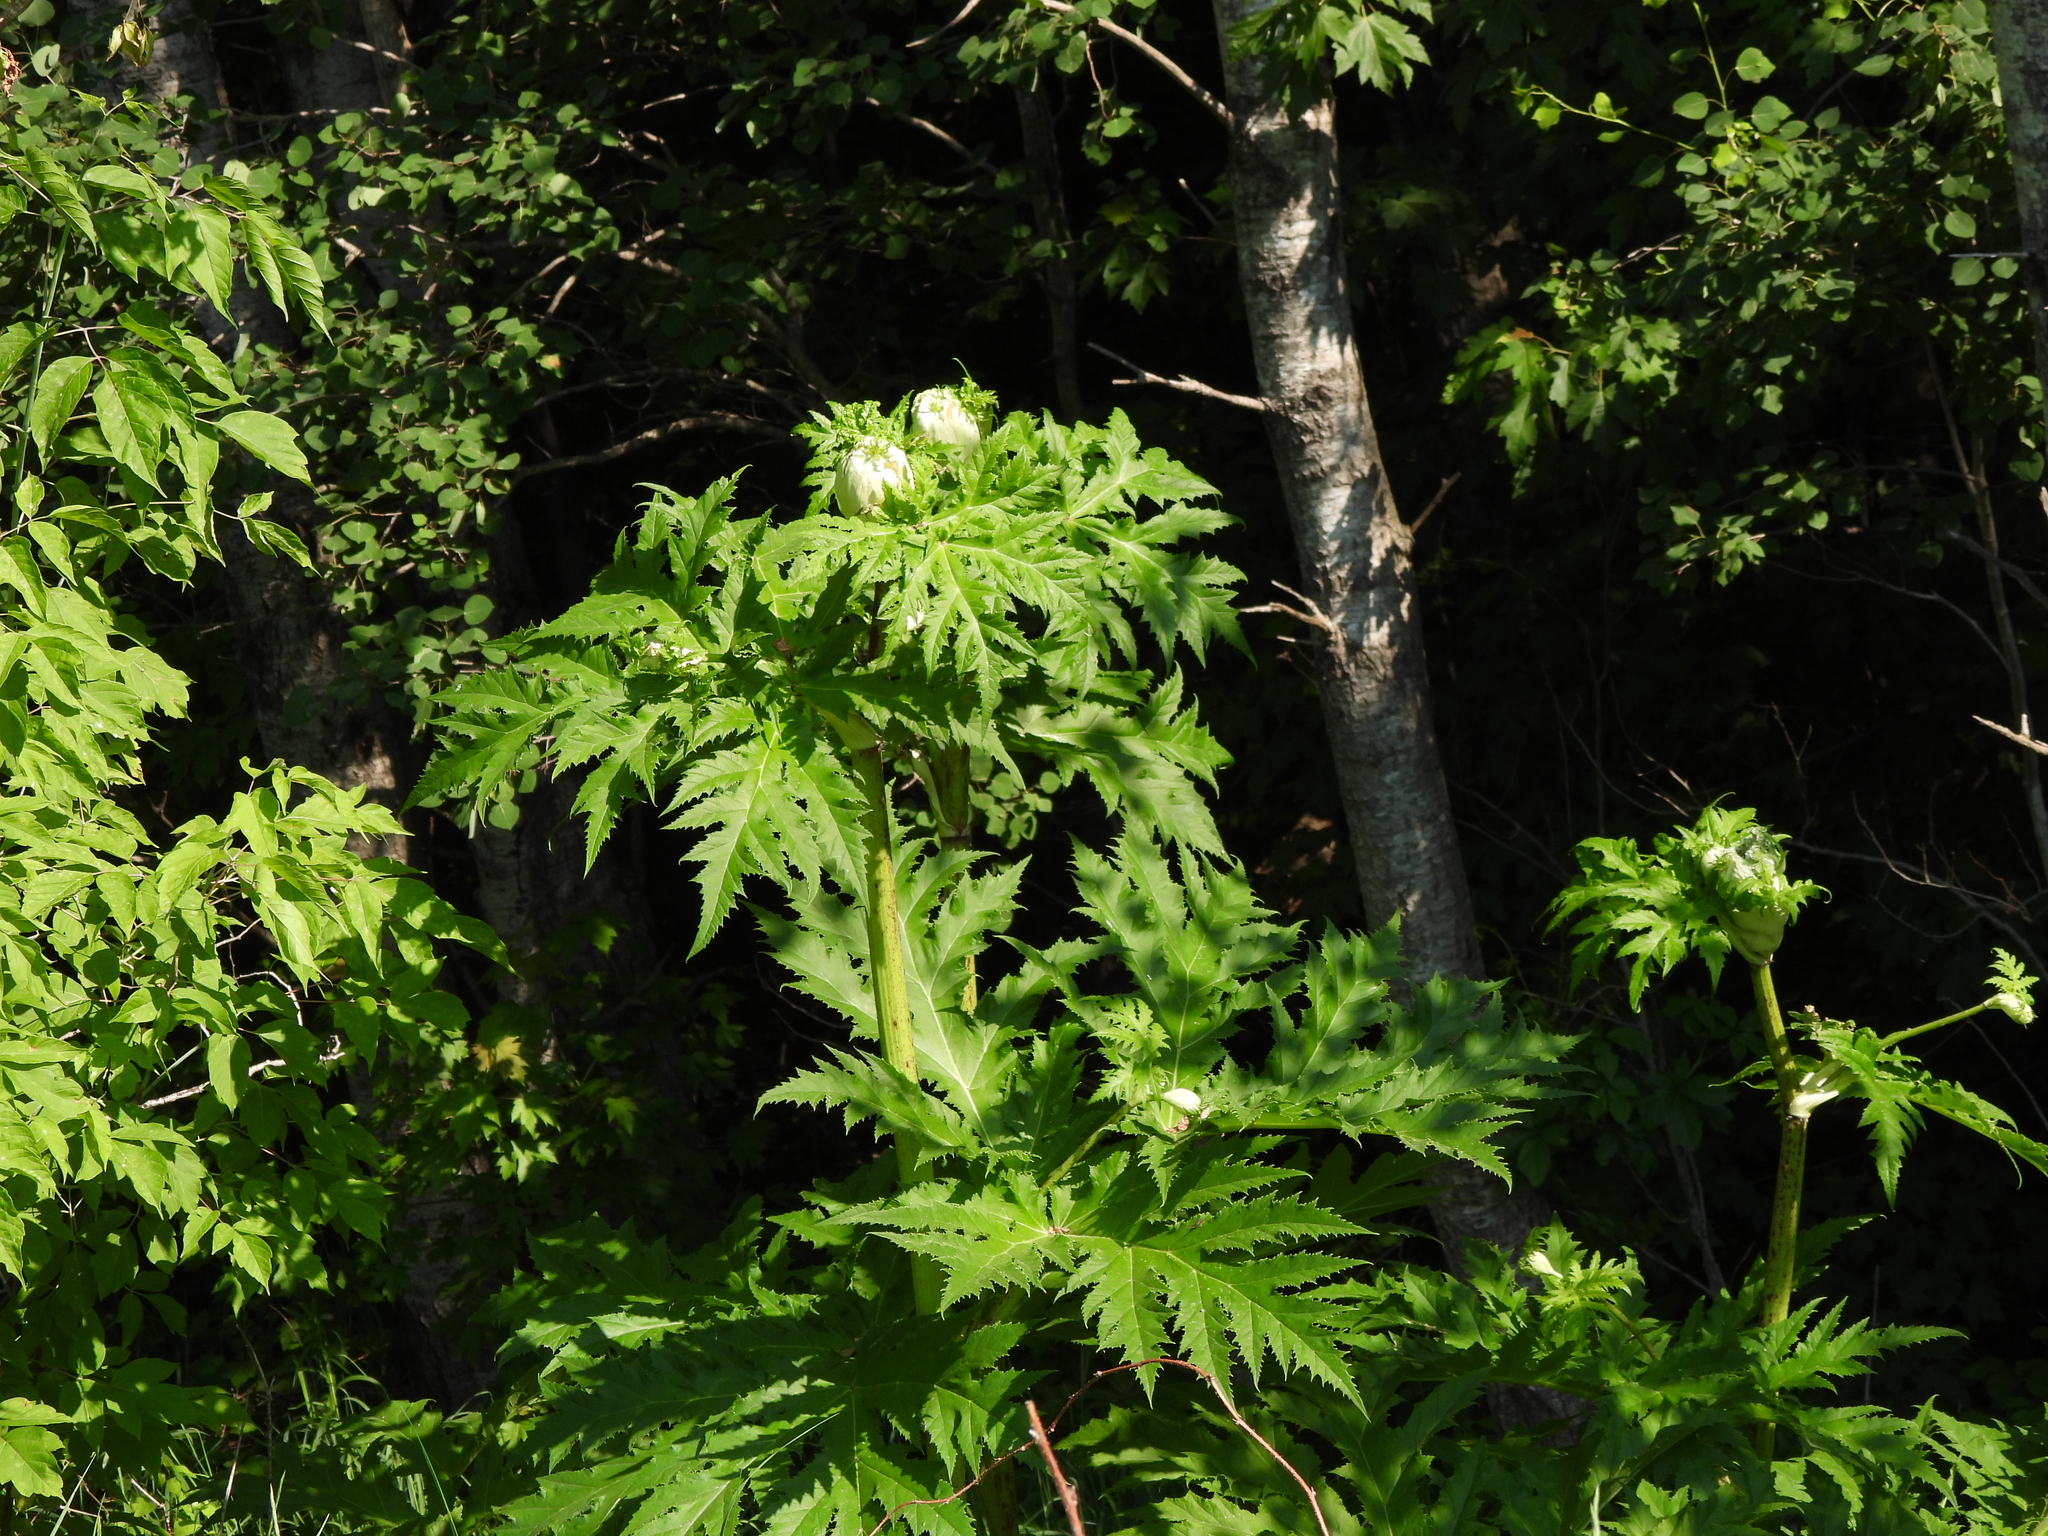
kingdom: Plantae
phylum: Tracheophyta
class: Magnoliopsida
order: Apiales
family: Apiaceae
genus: Heracleum
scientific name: Heracleum mantegazzianum
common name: Giant hogweed
